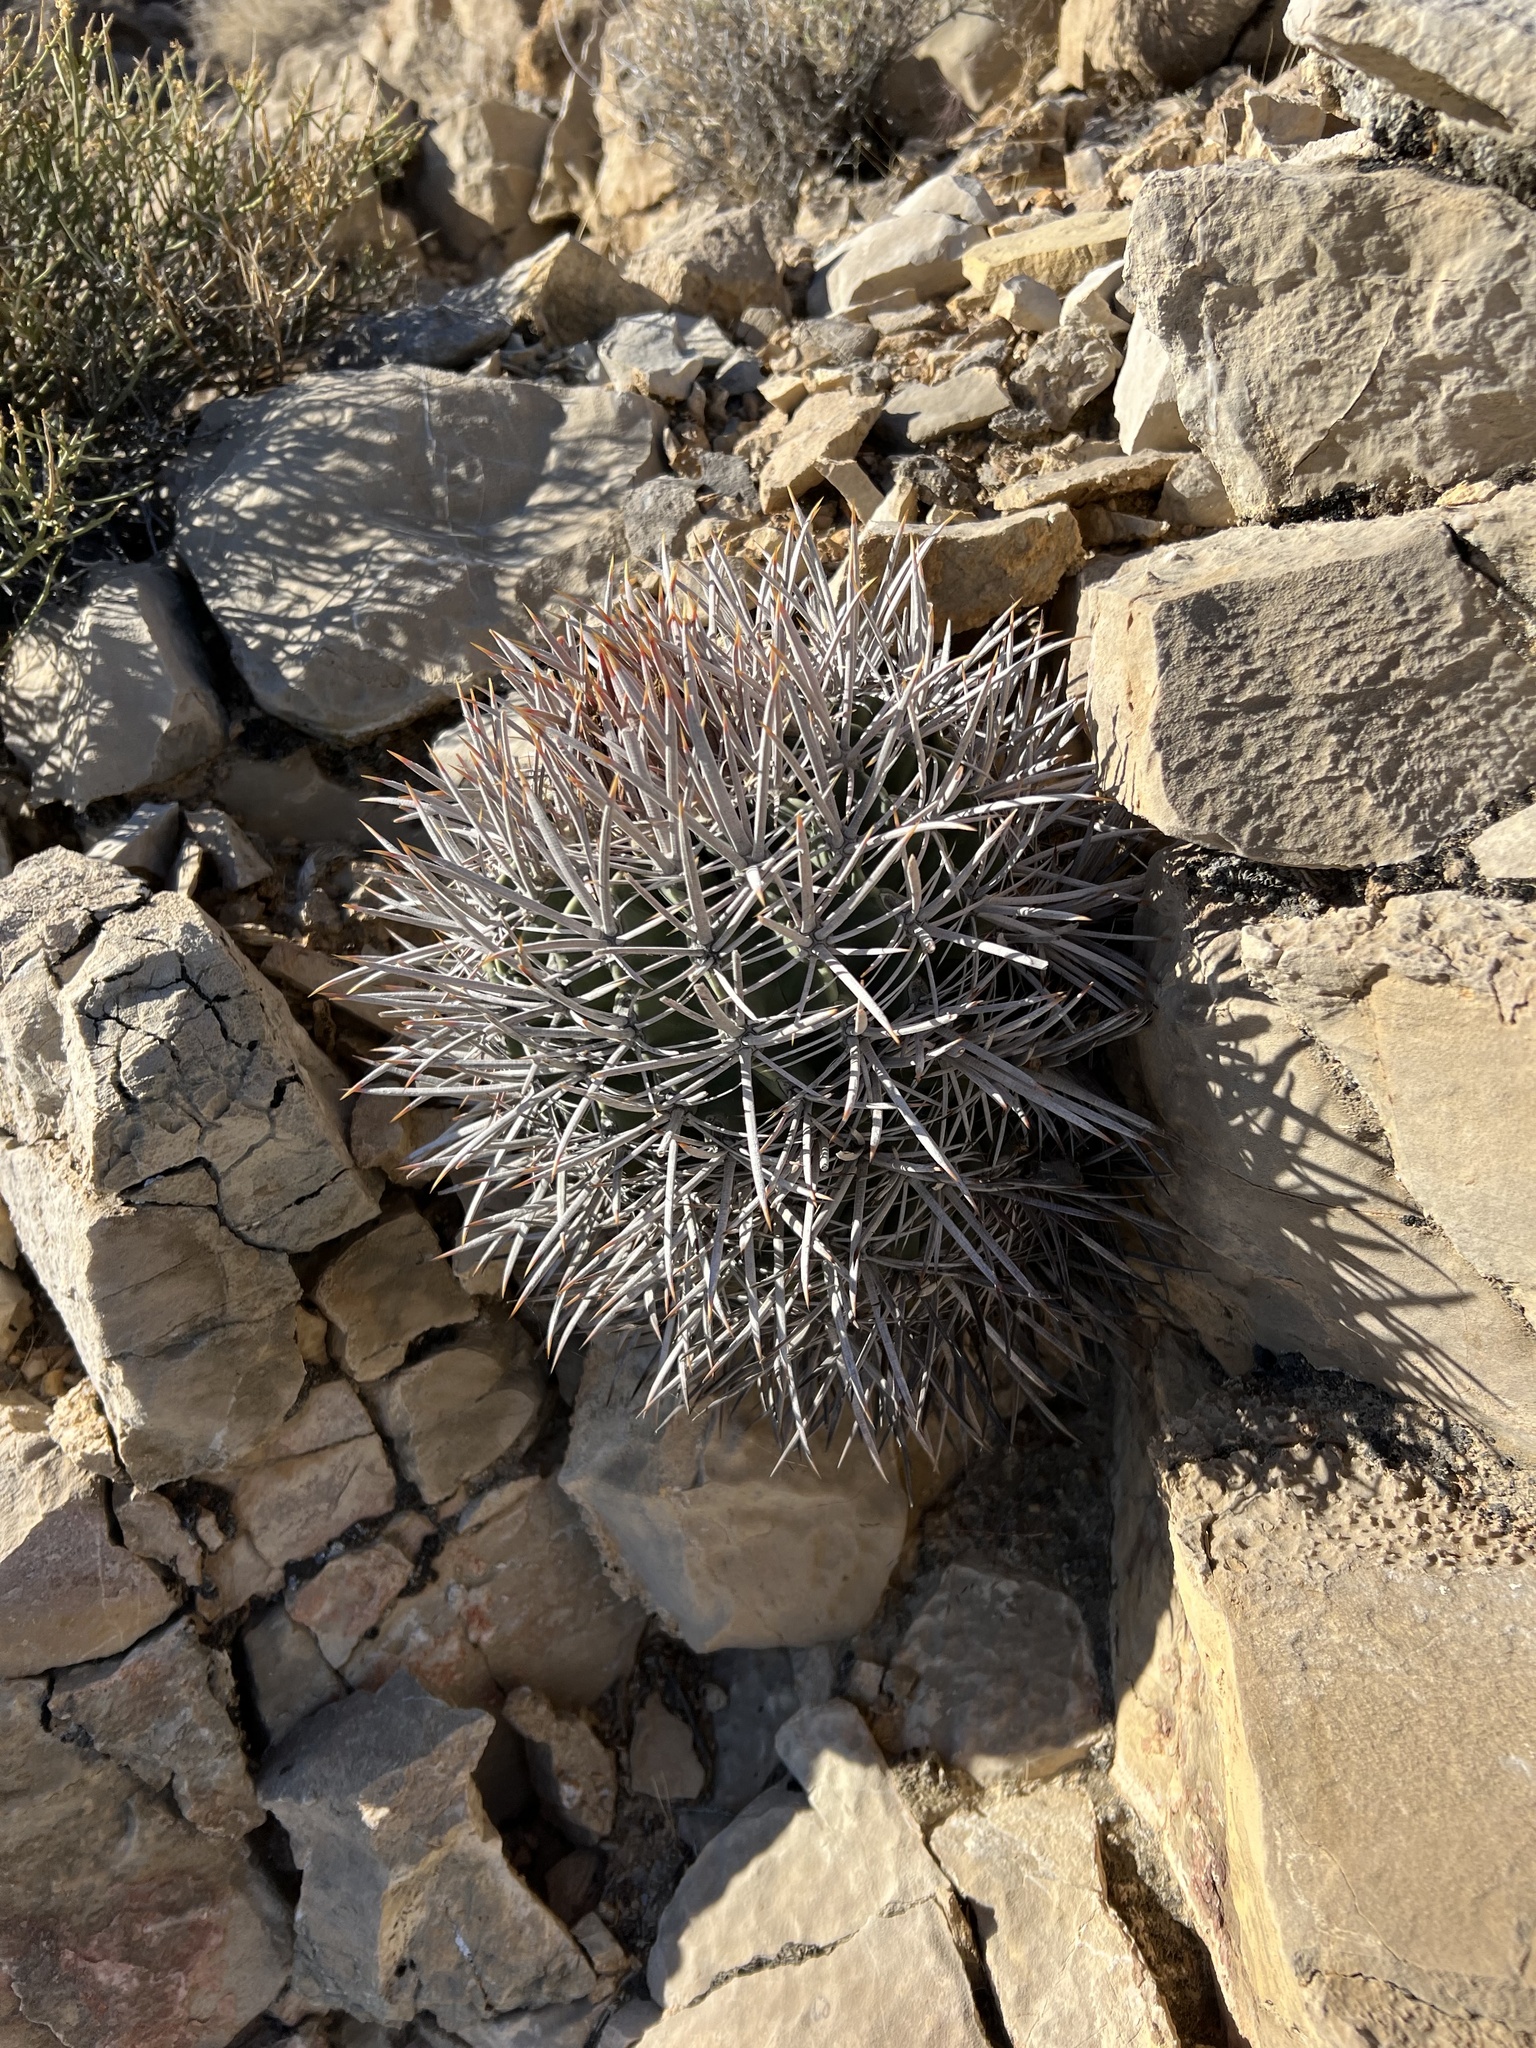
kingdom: Plantae
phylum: Tracheophyta
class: Magnoliopsida
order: Caryophyllales
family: Cactaceae
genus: Echinocactus
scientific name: Echinocactus polycephalus
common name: Cottontop cactus
